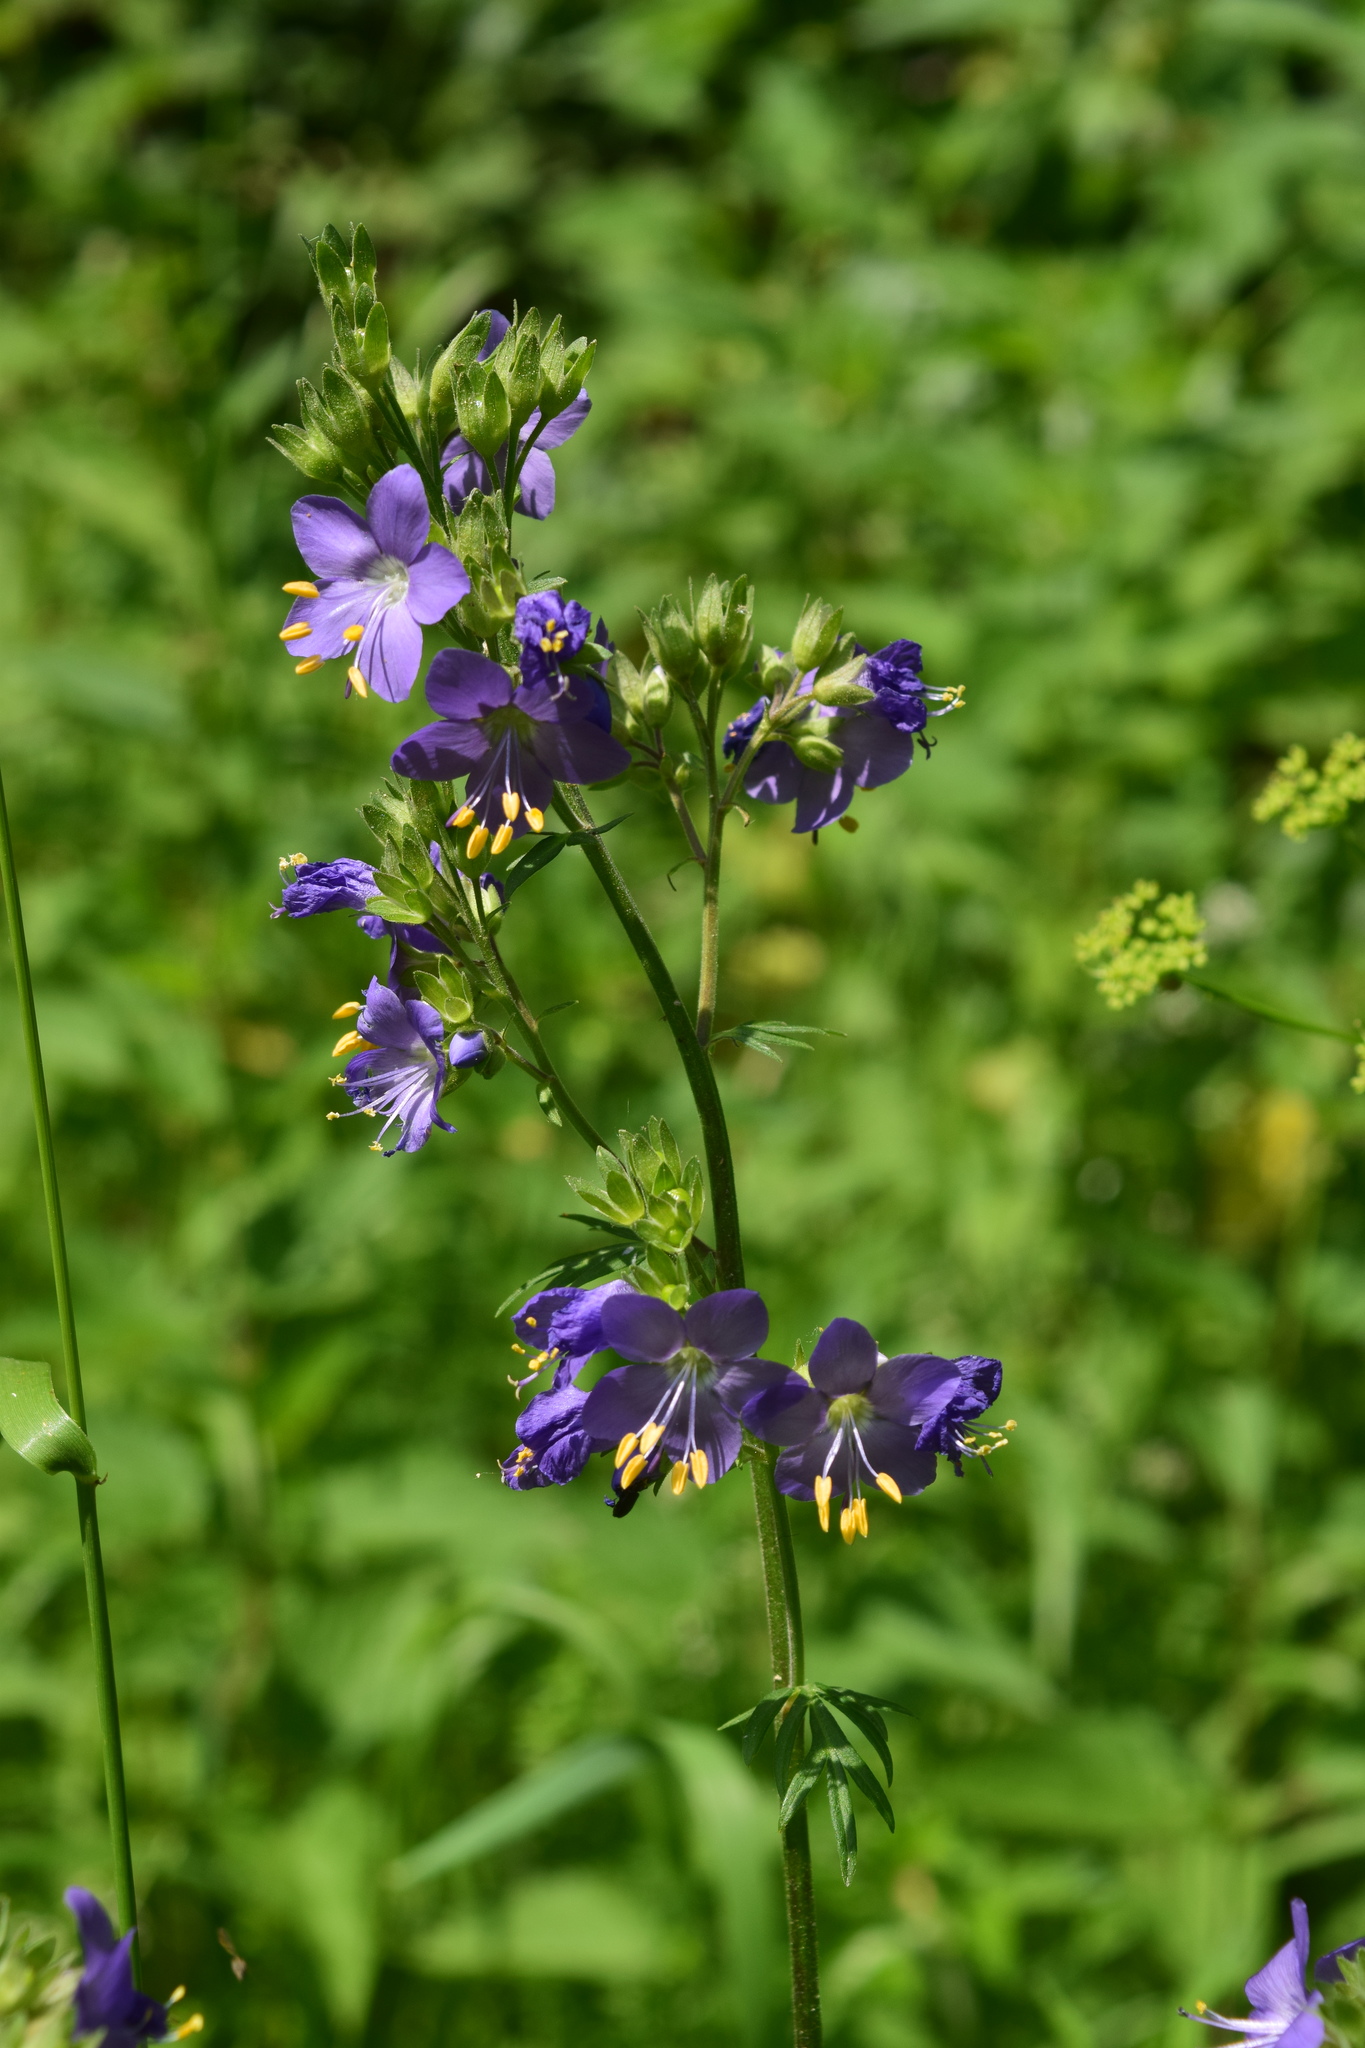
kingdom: Plantae
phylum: Tracheophyta
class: Magnoliopsida
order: Ericales
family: Polemoniaceae
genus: Polemonium
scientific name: Polemonium caeruleum
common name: Jacob's-ladder
